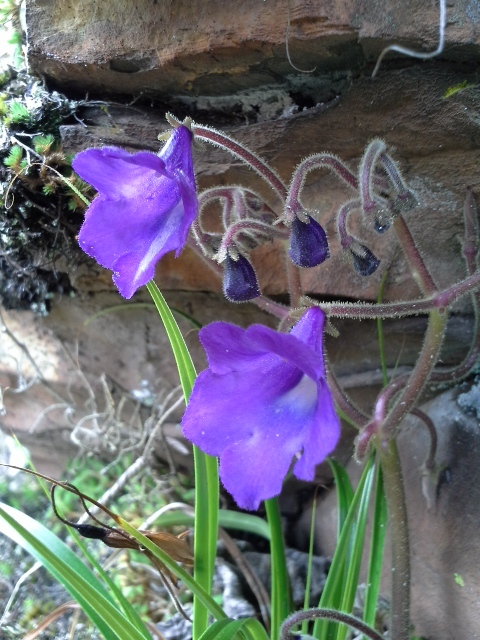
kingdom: Plantae
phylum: Tracheophyta
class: Magnoliopsida
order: Lamiales
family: Gesneriaceae
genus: Streptocarpus
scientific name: Streptocarpus galpinii
